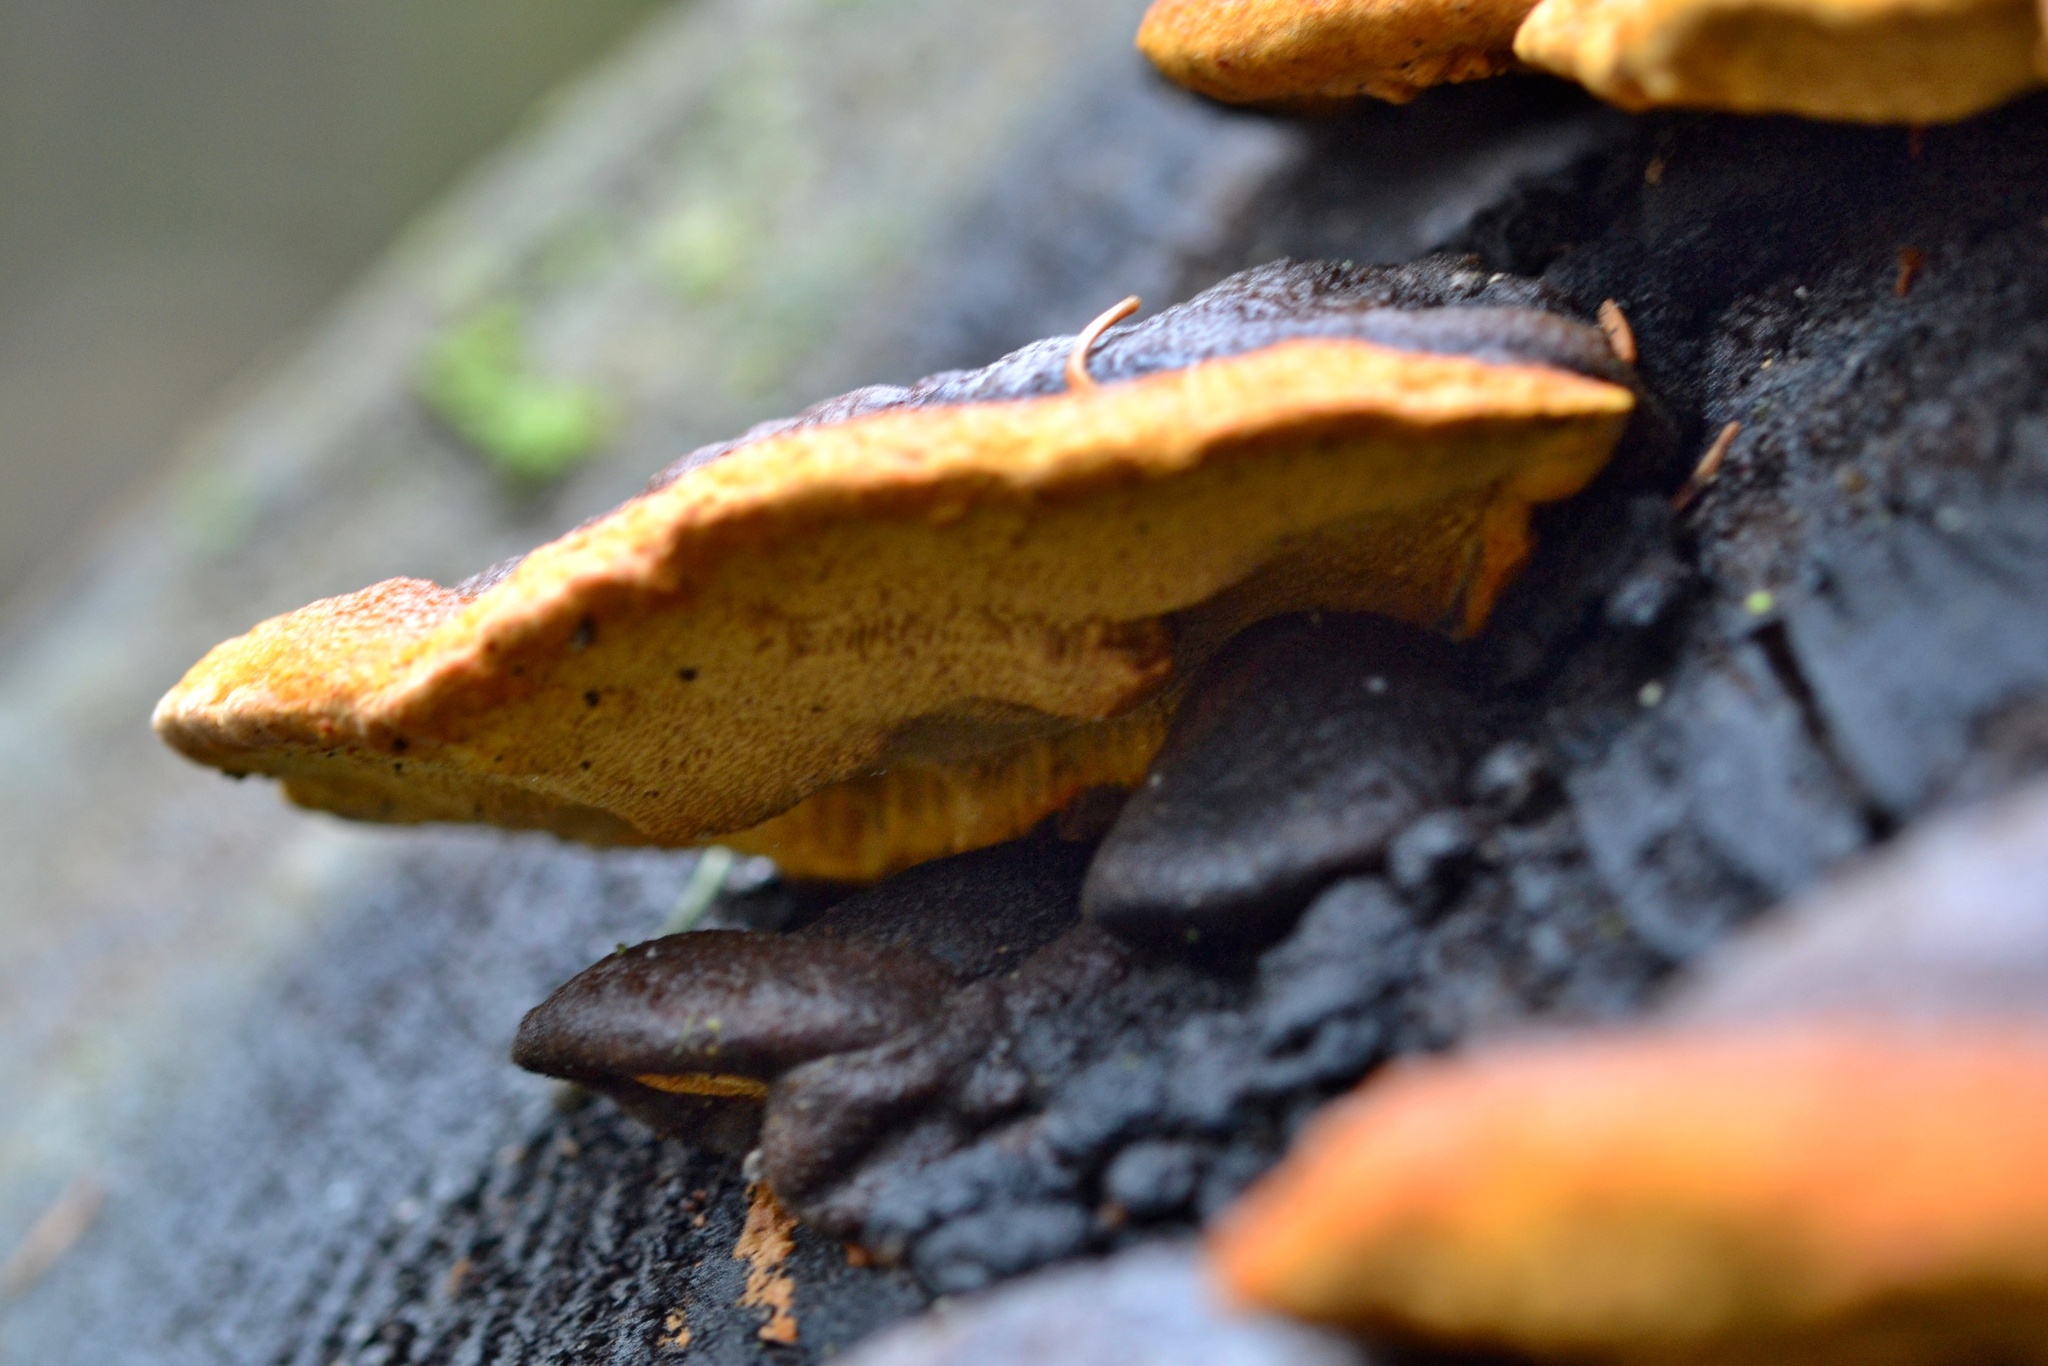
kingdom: Fungi
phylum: Basidiomycota
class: Agaricomycetes
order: Polyporales
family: Fomitopsidaceae
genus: Fomitopsis
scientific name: Fomitopsis pinicola
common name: Red-belted bracket
